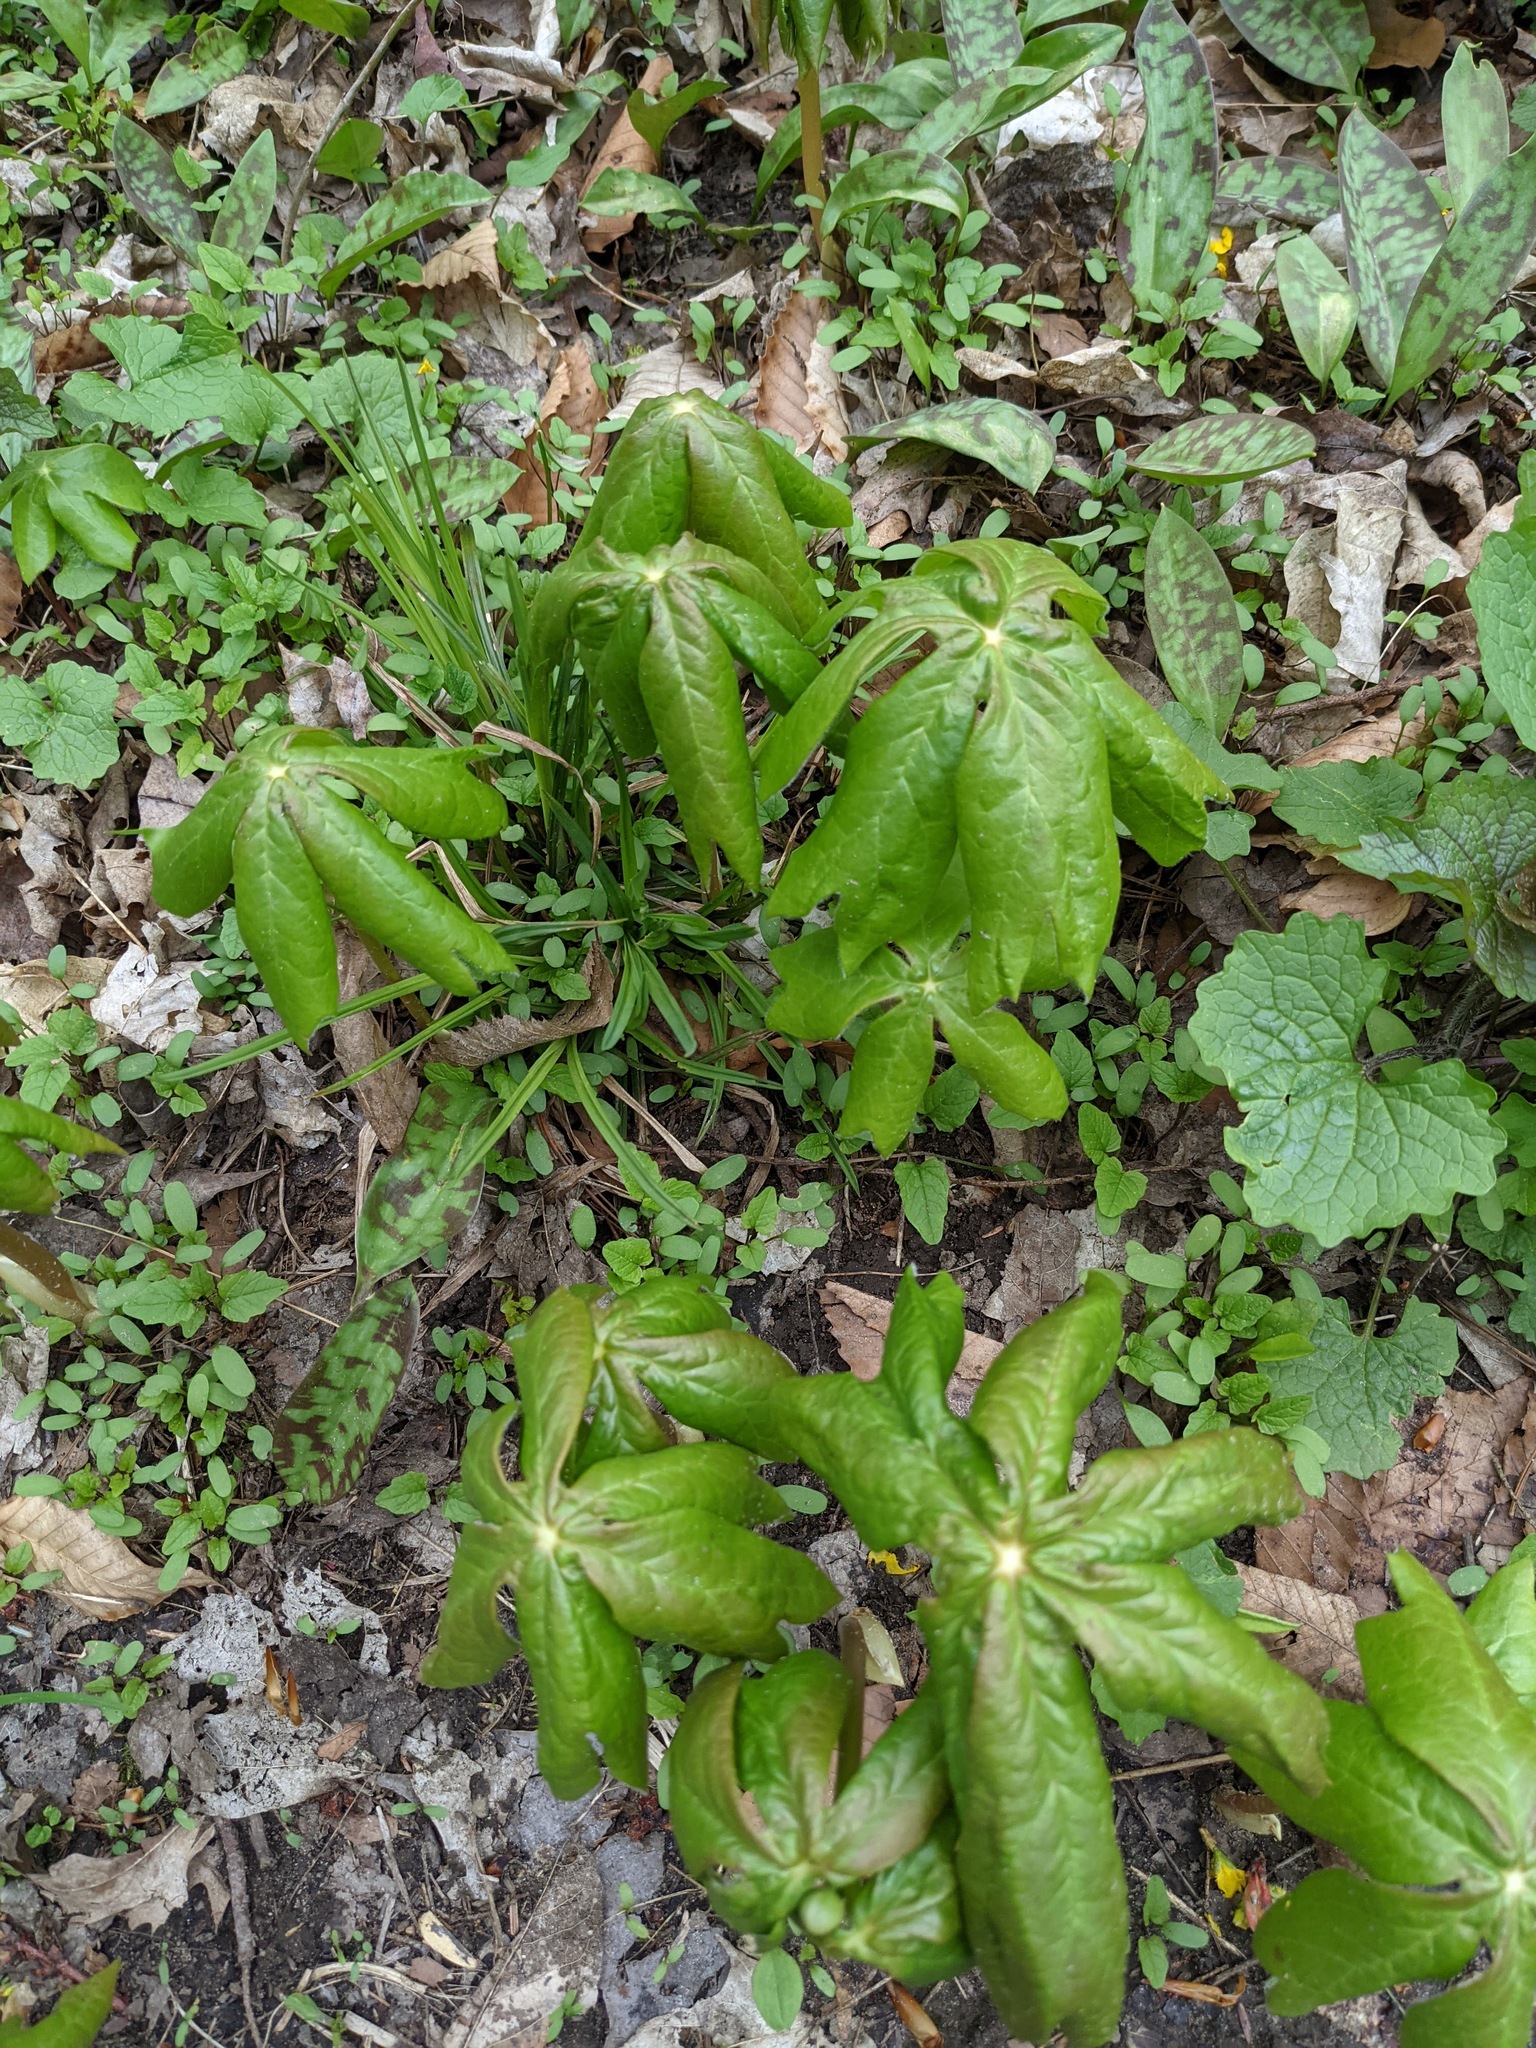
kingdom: Plantae
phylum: Tracheophyta
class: Magnoliopsida
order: Ranunculales
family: Berberidaceae
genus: Podophyllum
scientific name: Podophyllum peltatum
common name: Wild mandrake
